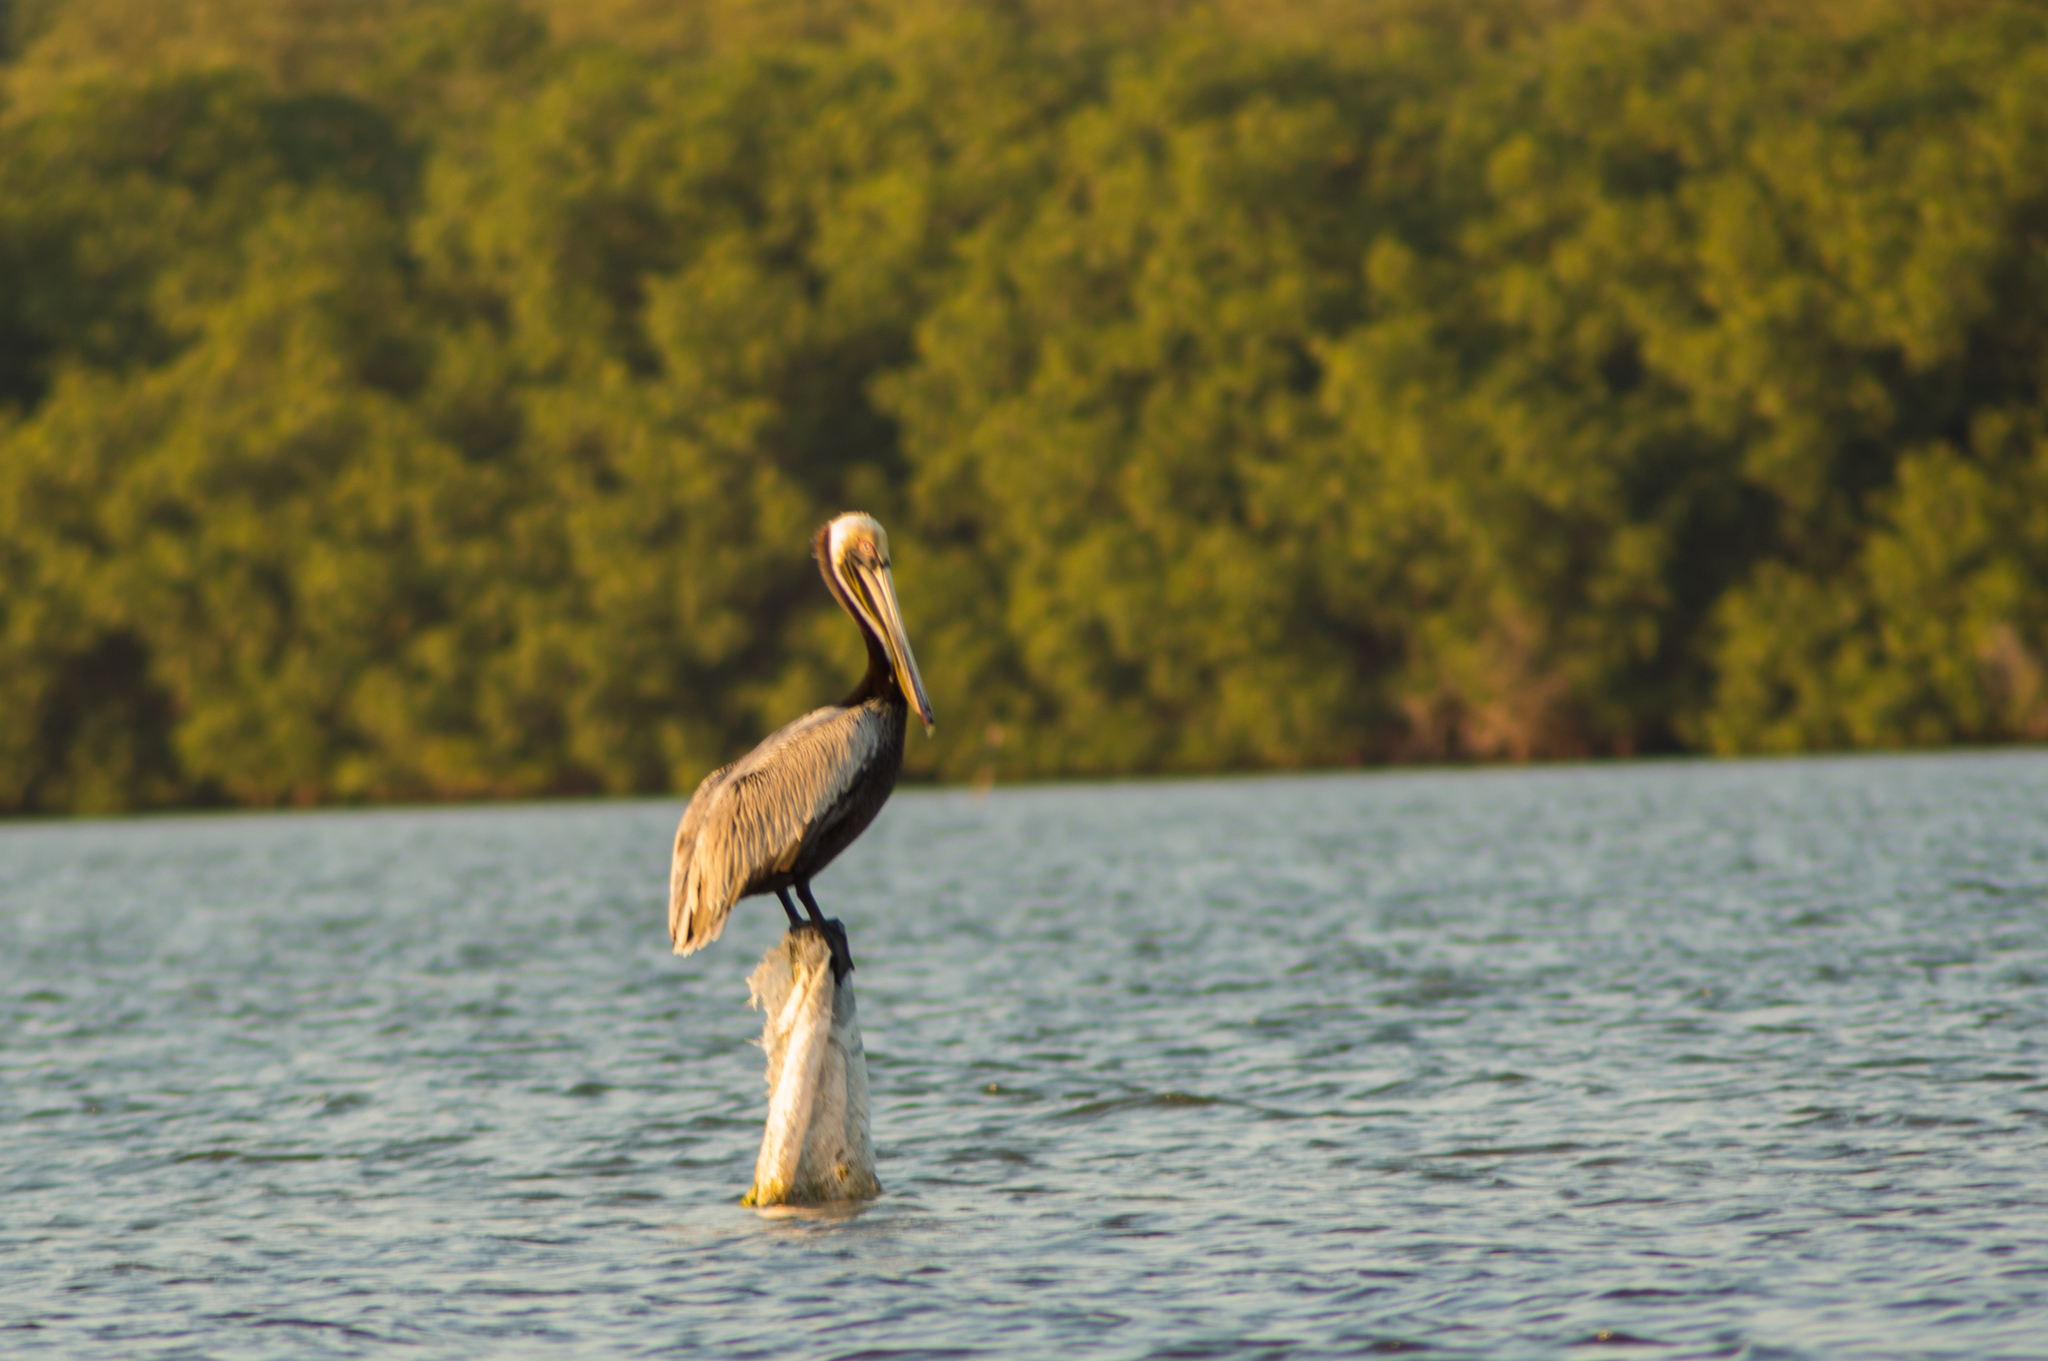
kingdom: Animalia
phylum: Chordata
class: Aves
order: Pelecaniformes
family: Pelecanidae
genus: Pelecanus
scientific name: Pelecanus occidentalis
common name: Brown pelican
